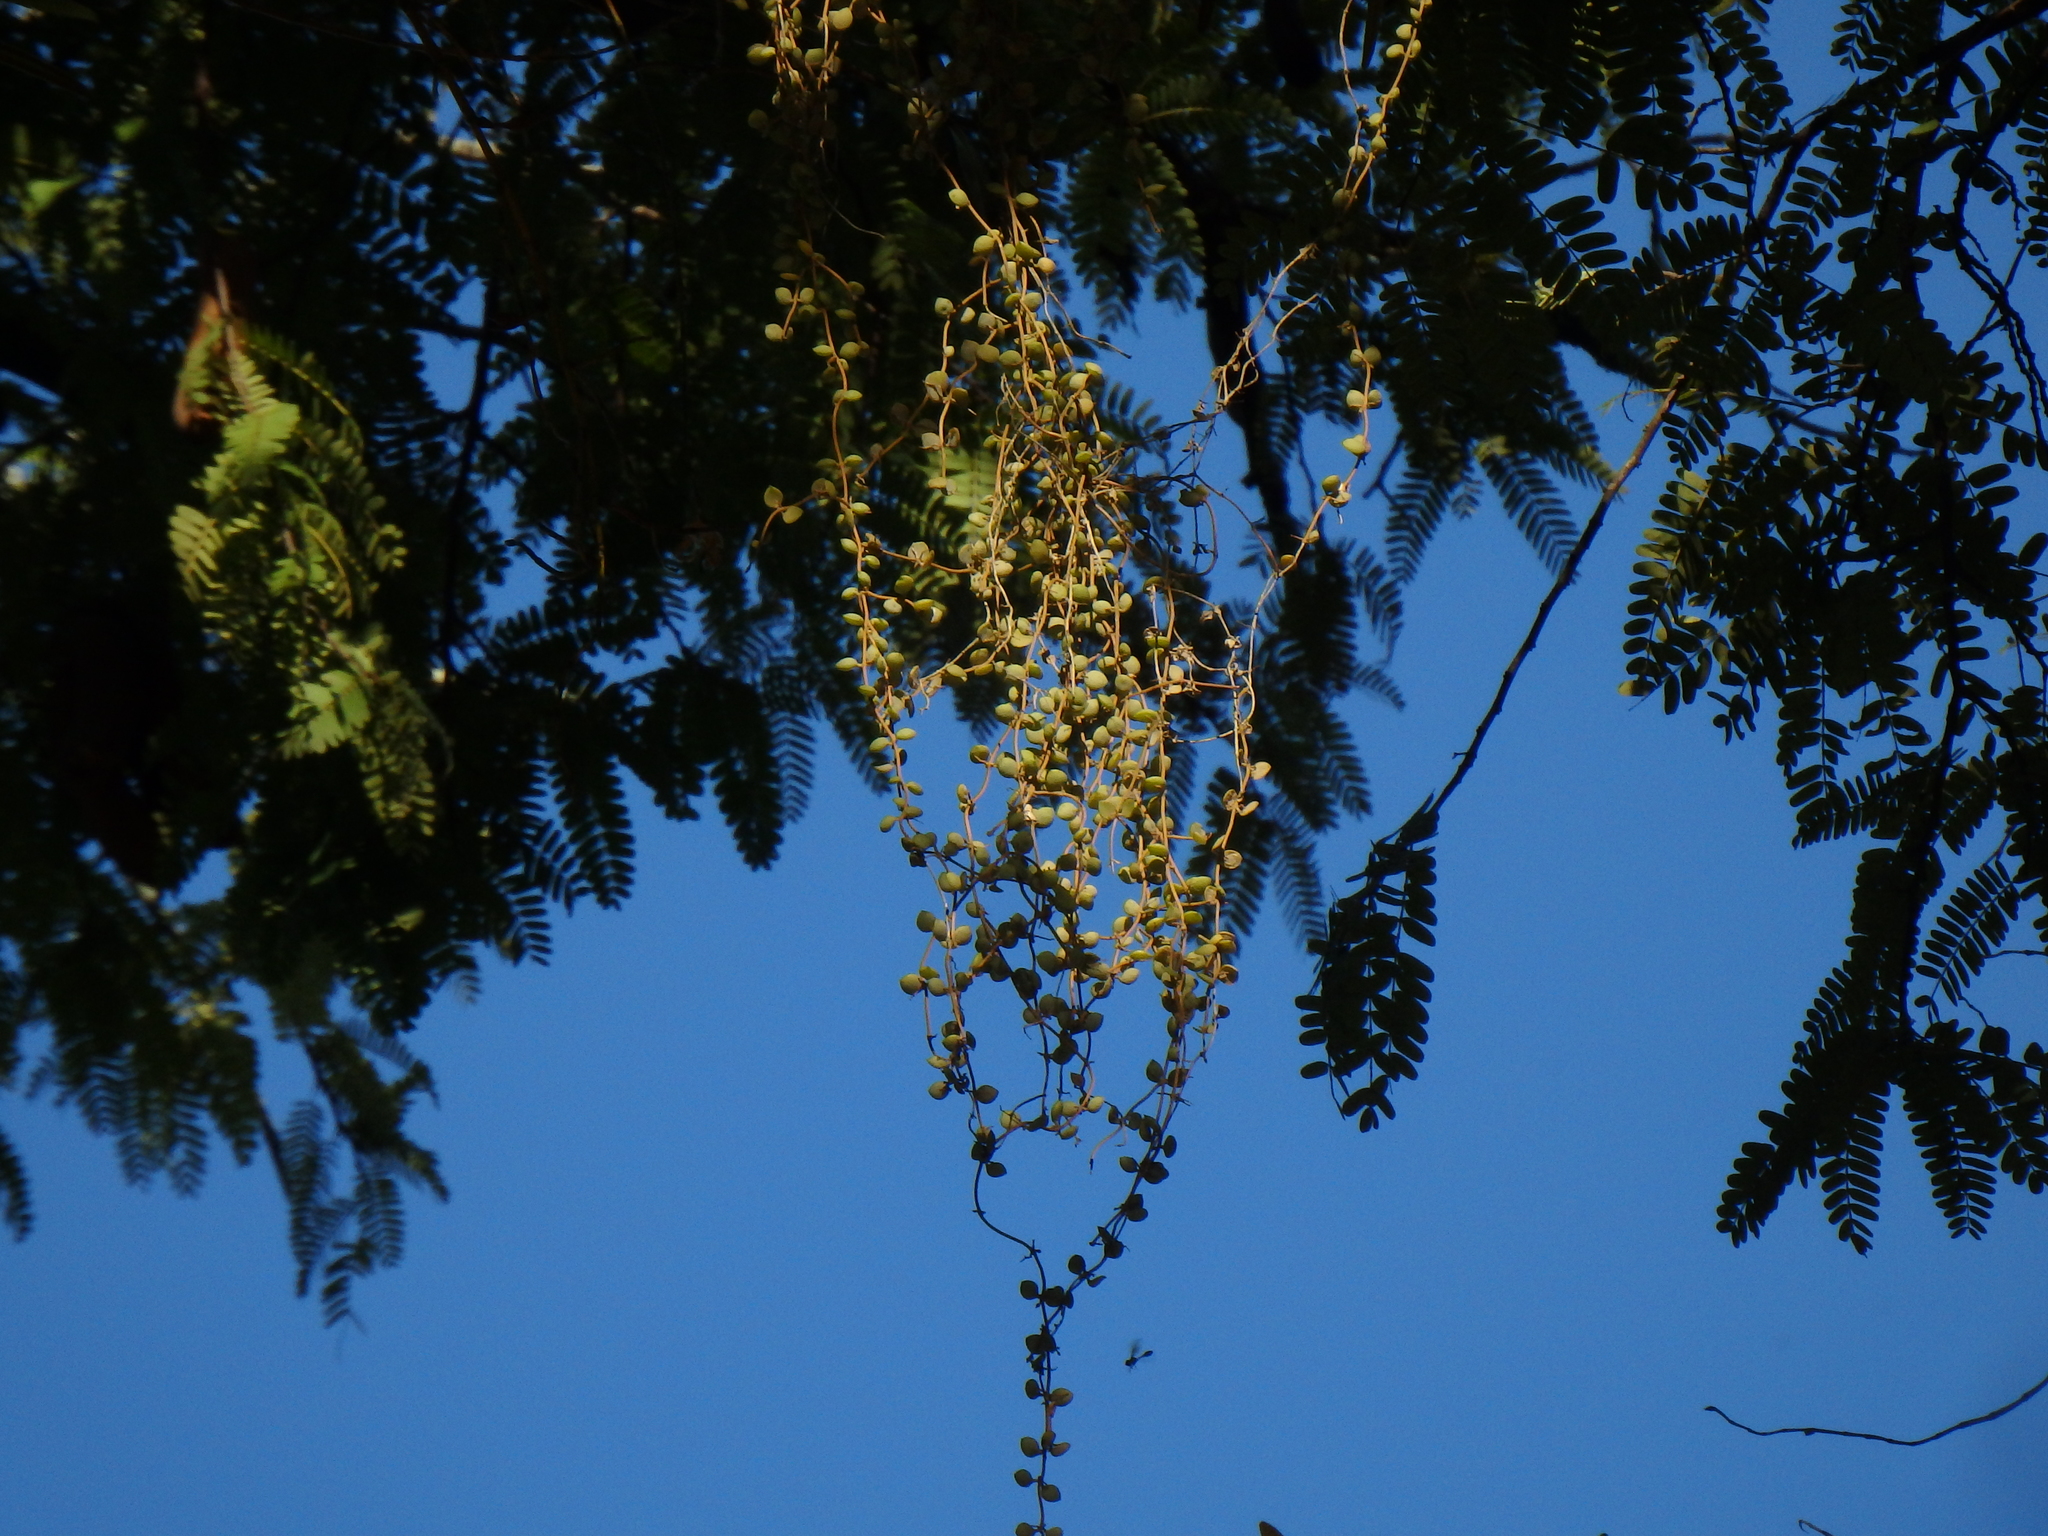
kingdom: Plantae
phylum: Tracheophyta
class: Magnoliopsida
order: Gentianales
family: Apocynaceae
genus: Dischidia
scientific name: Dischidia nummularia
